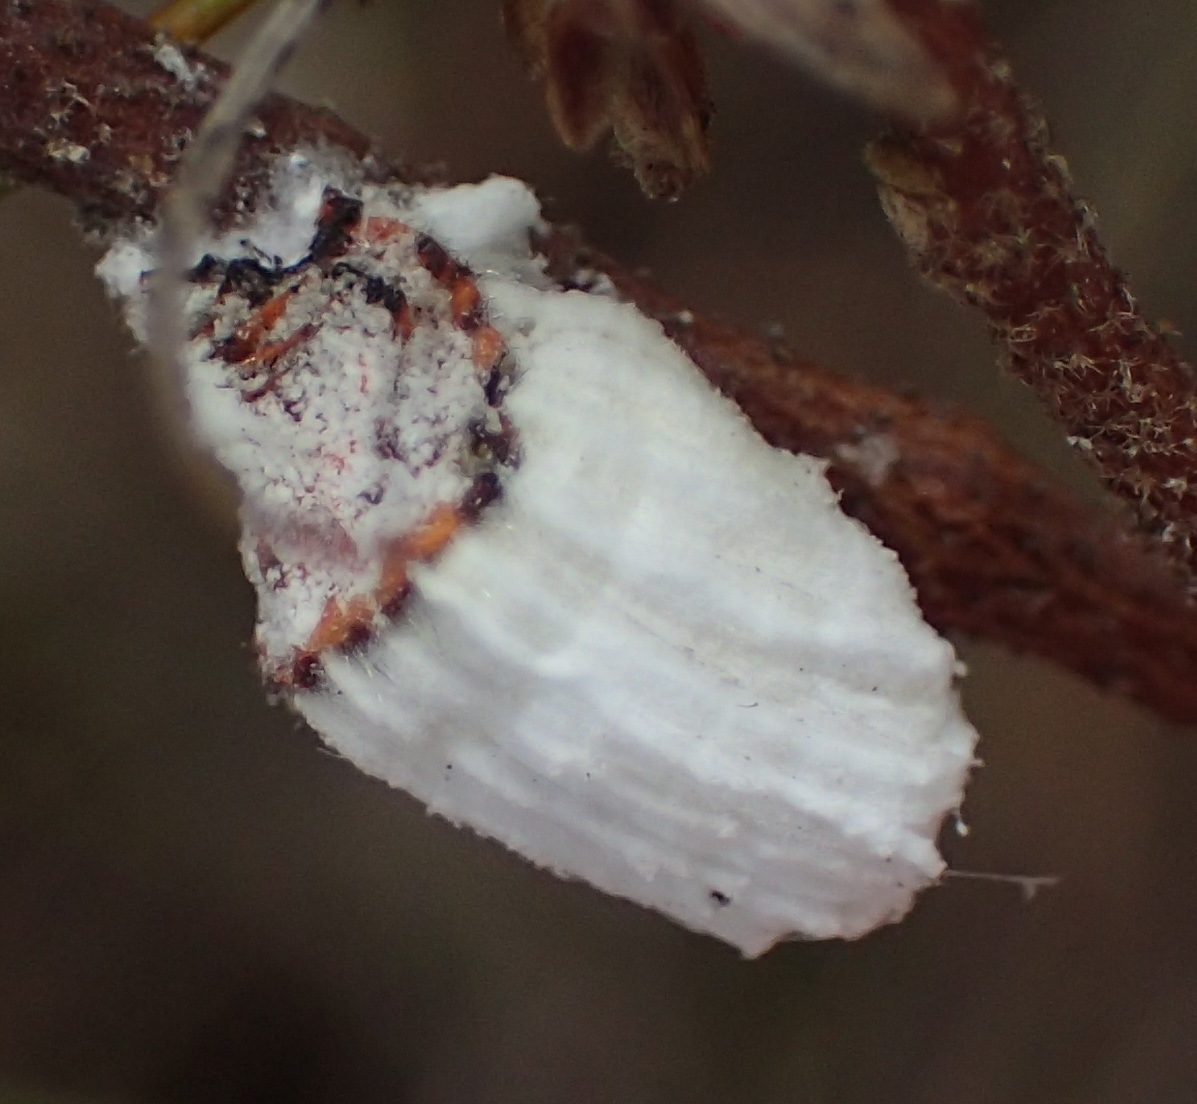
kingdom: Animalia
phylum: Arthropoda
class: Insecta
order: Hemiptera
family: Margarodidae
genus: Icerya
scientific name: Icerya purchasi
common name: Cottony cushion scale
